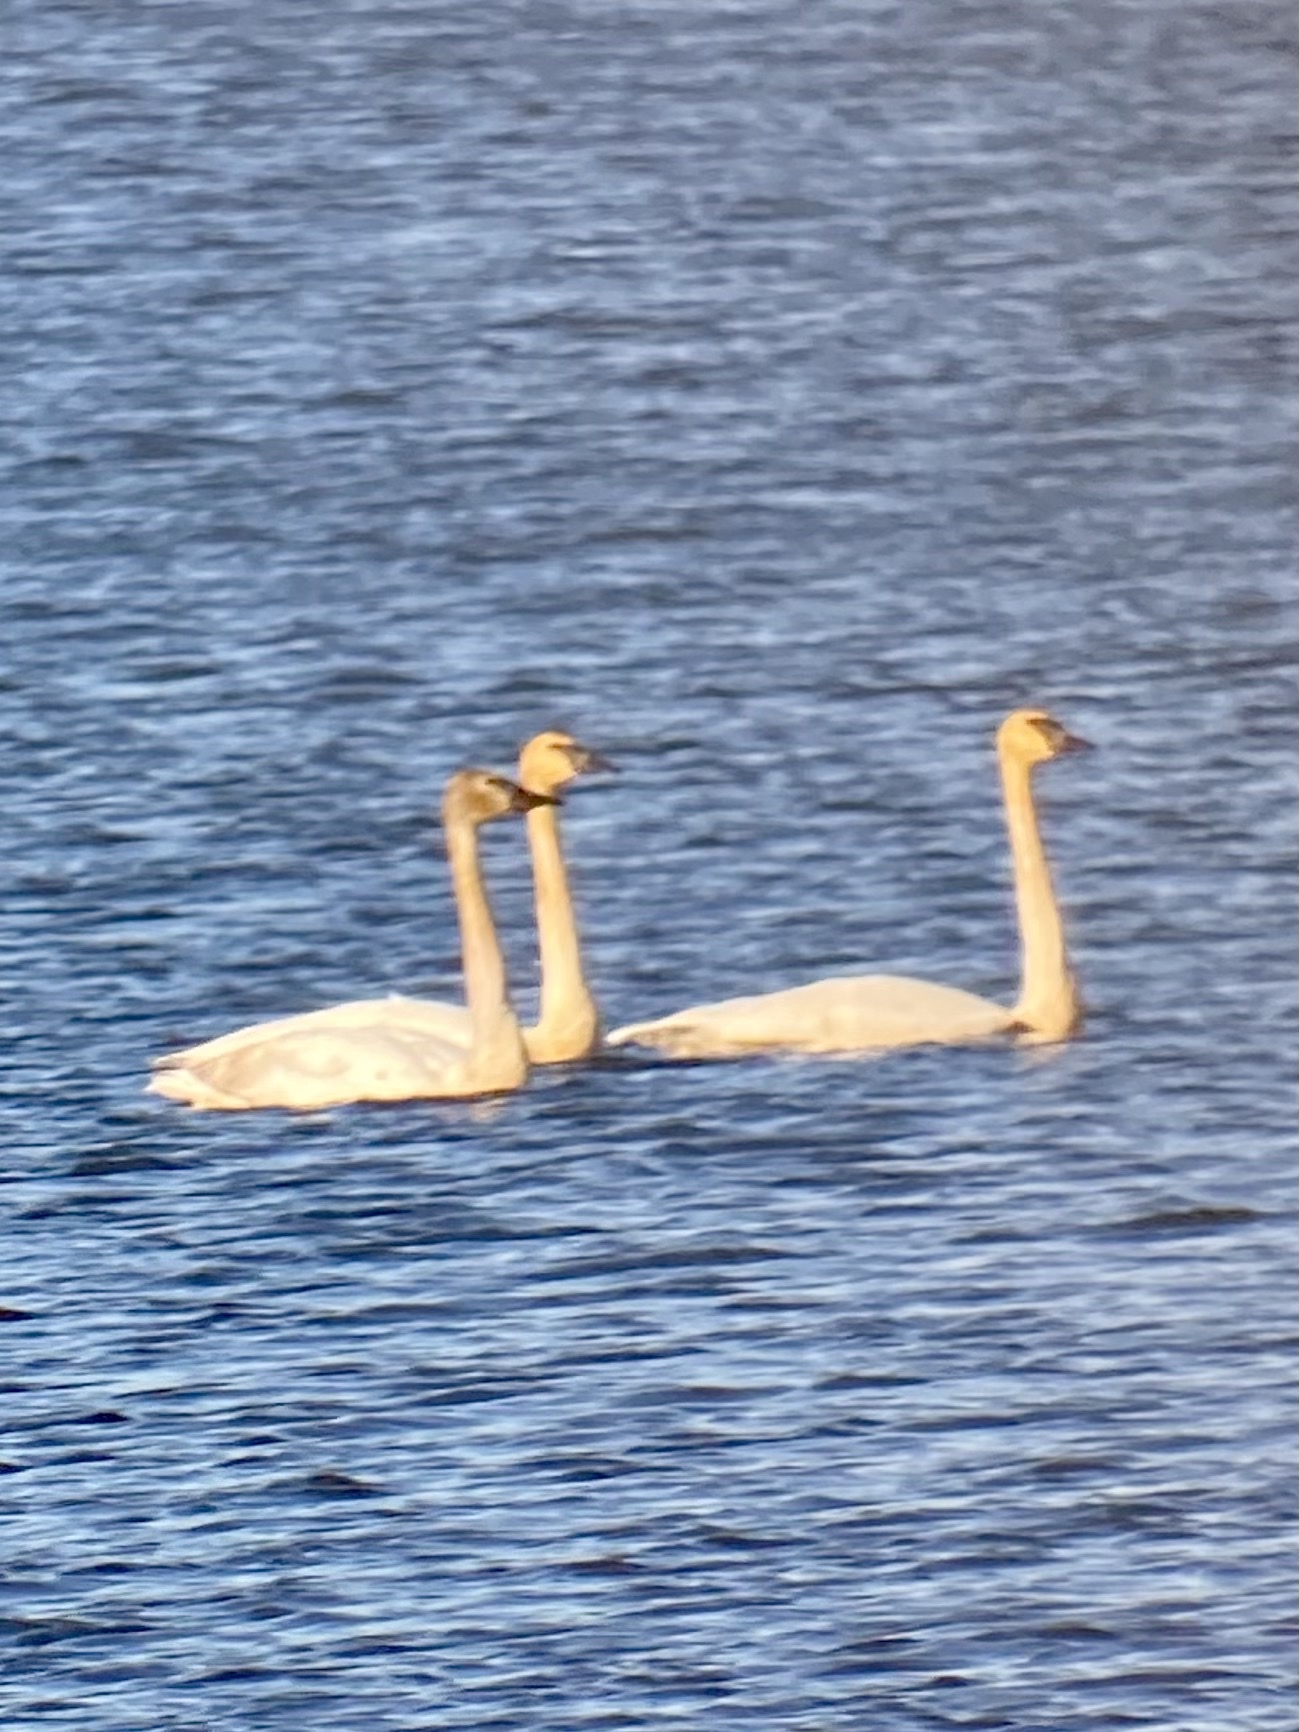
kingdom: Animalia
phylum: Chordata
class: Aves
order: Anseriformes
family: Anatidae
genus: Cygnus
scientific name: Cygnus buccinator
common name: Trumpeter swan
